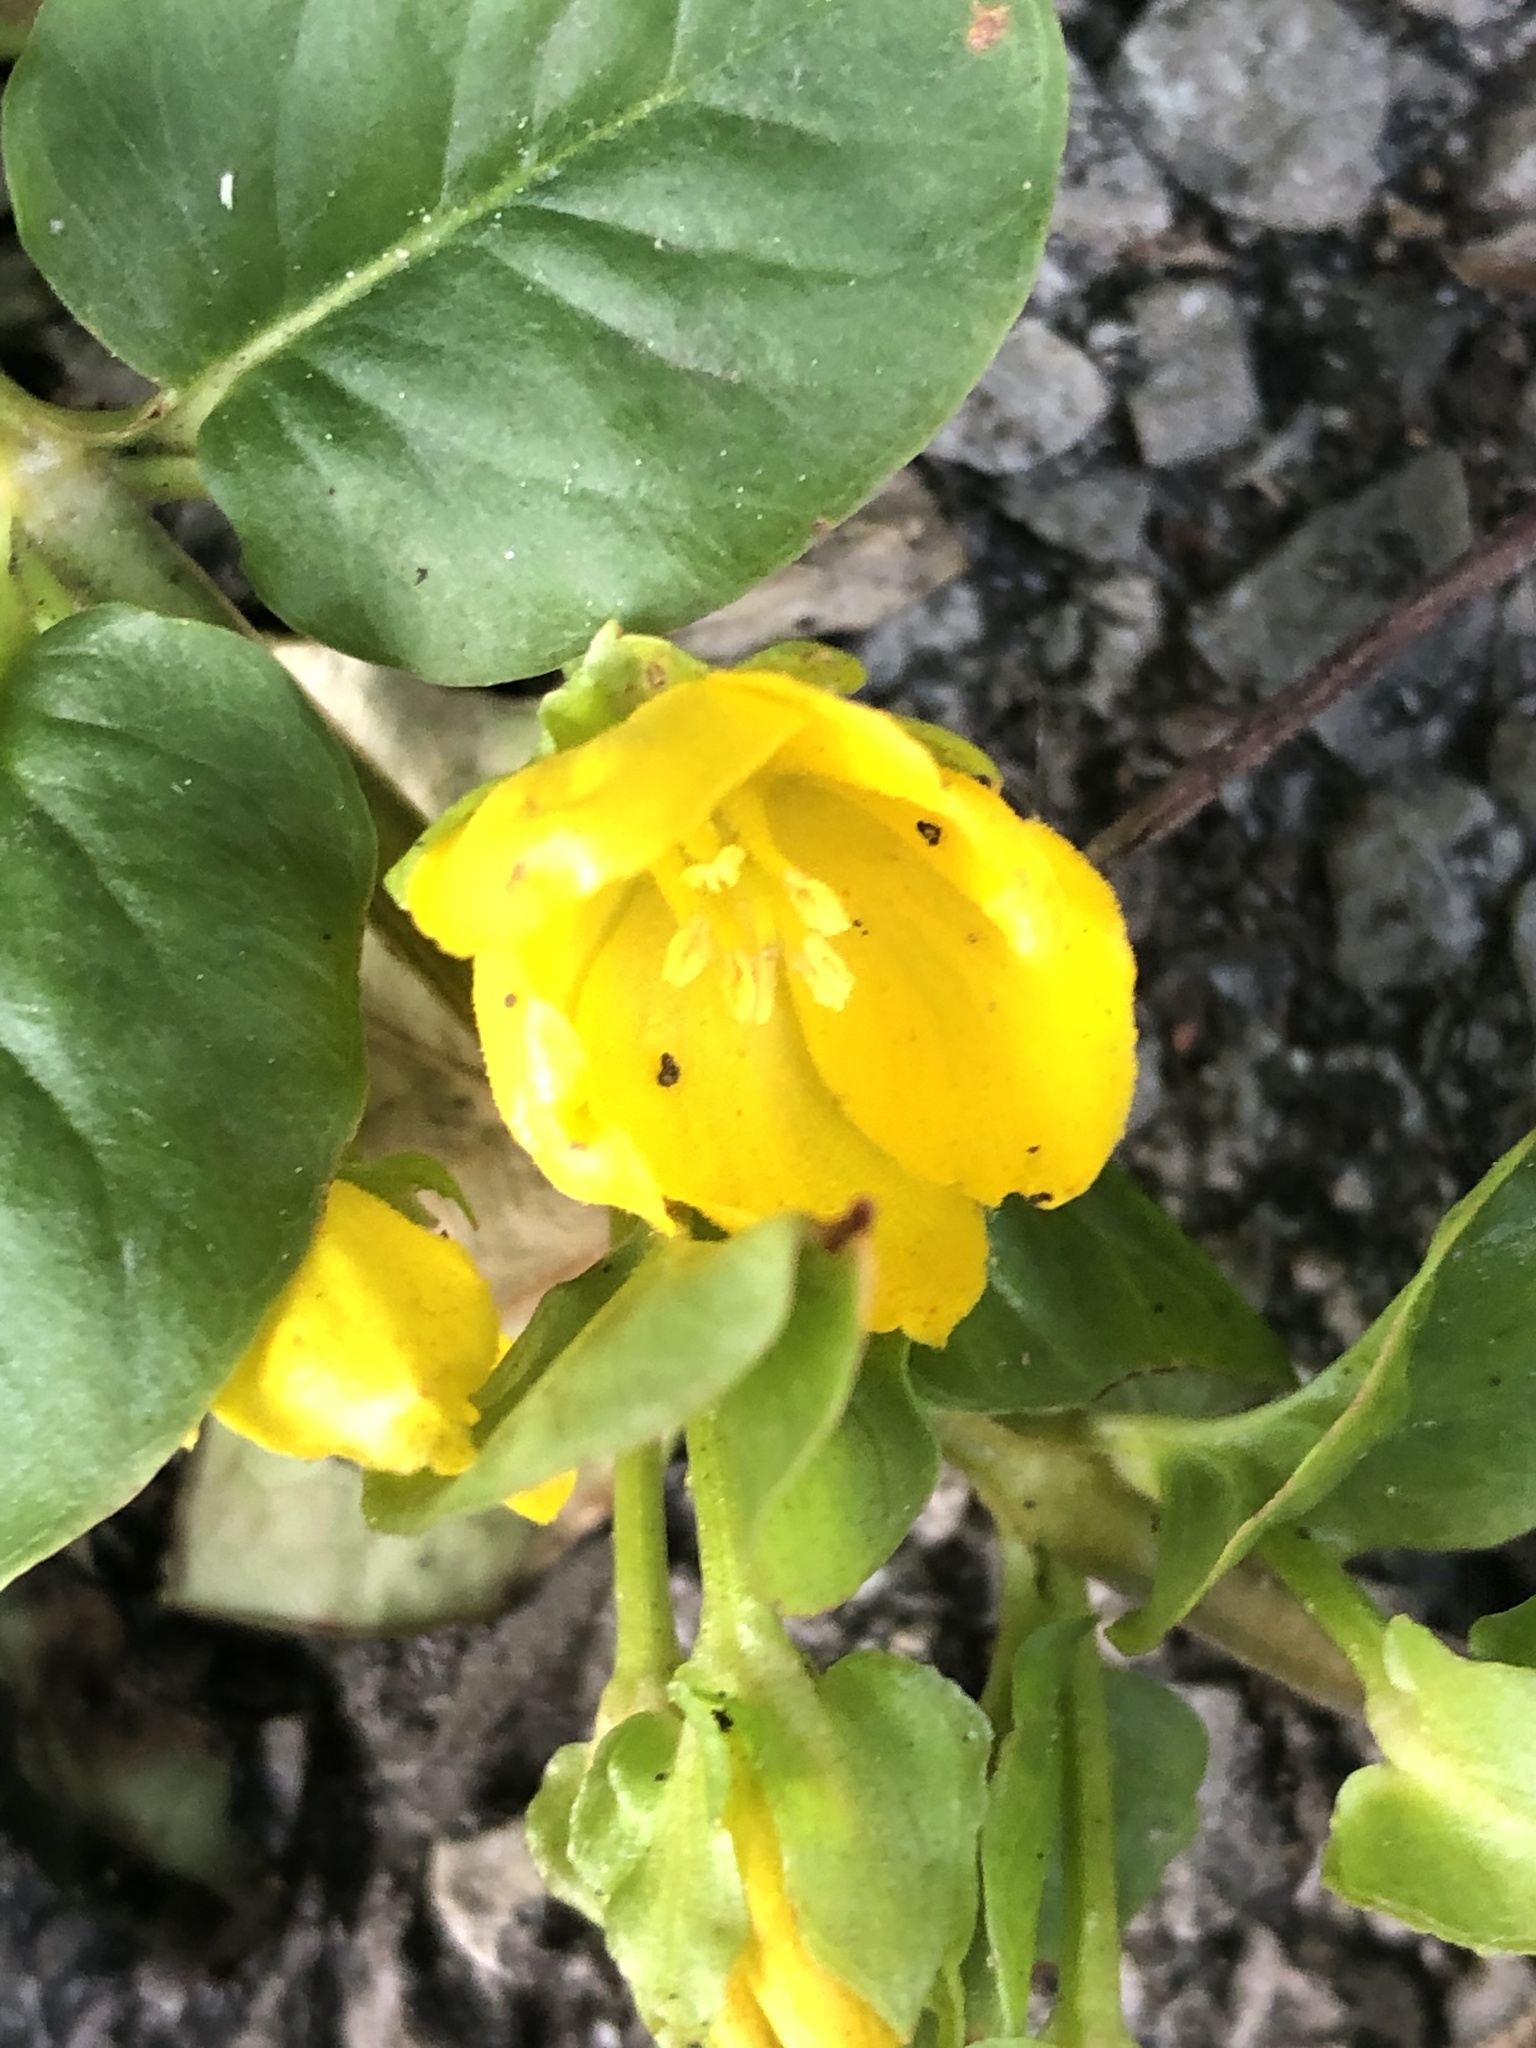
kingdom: Plantae
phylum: Tracheophyta
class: Magnoliopsida
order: Ericales
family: Primulaceae
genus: Lysimachia
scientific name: Lysimachia nummularia
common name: Moneywort
